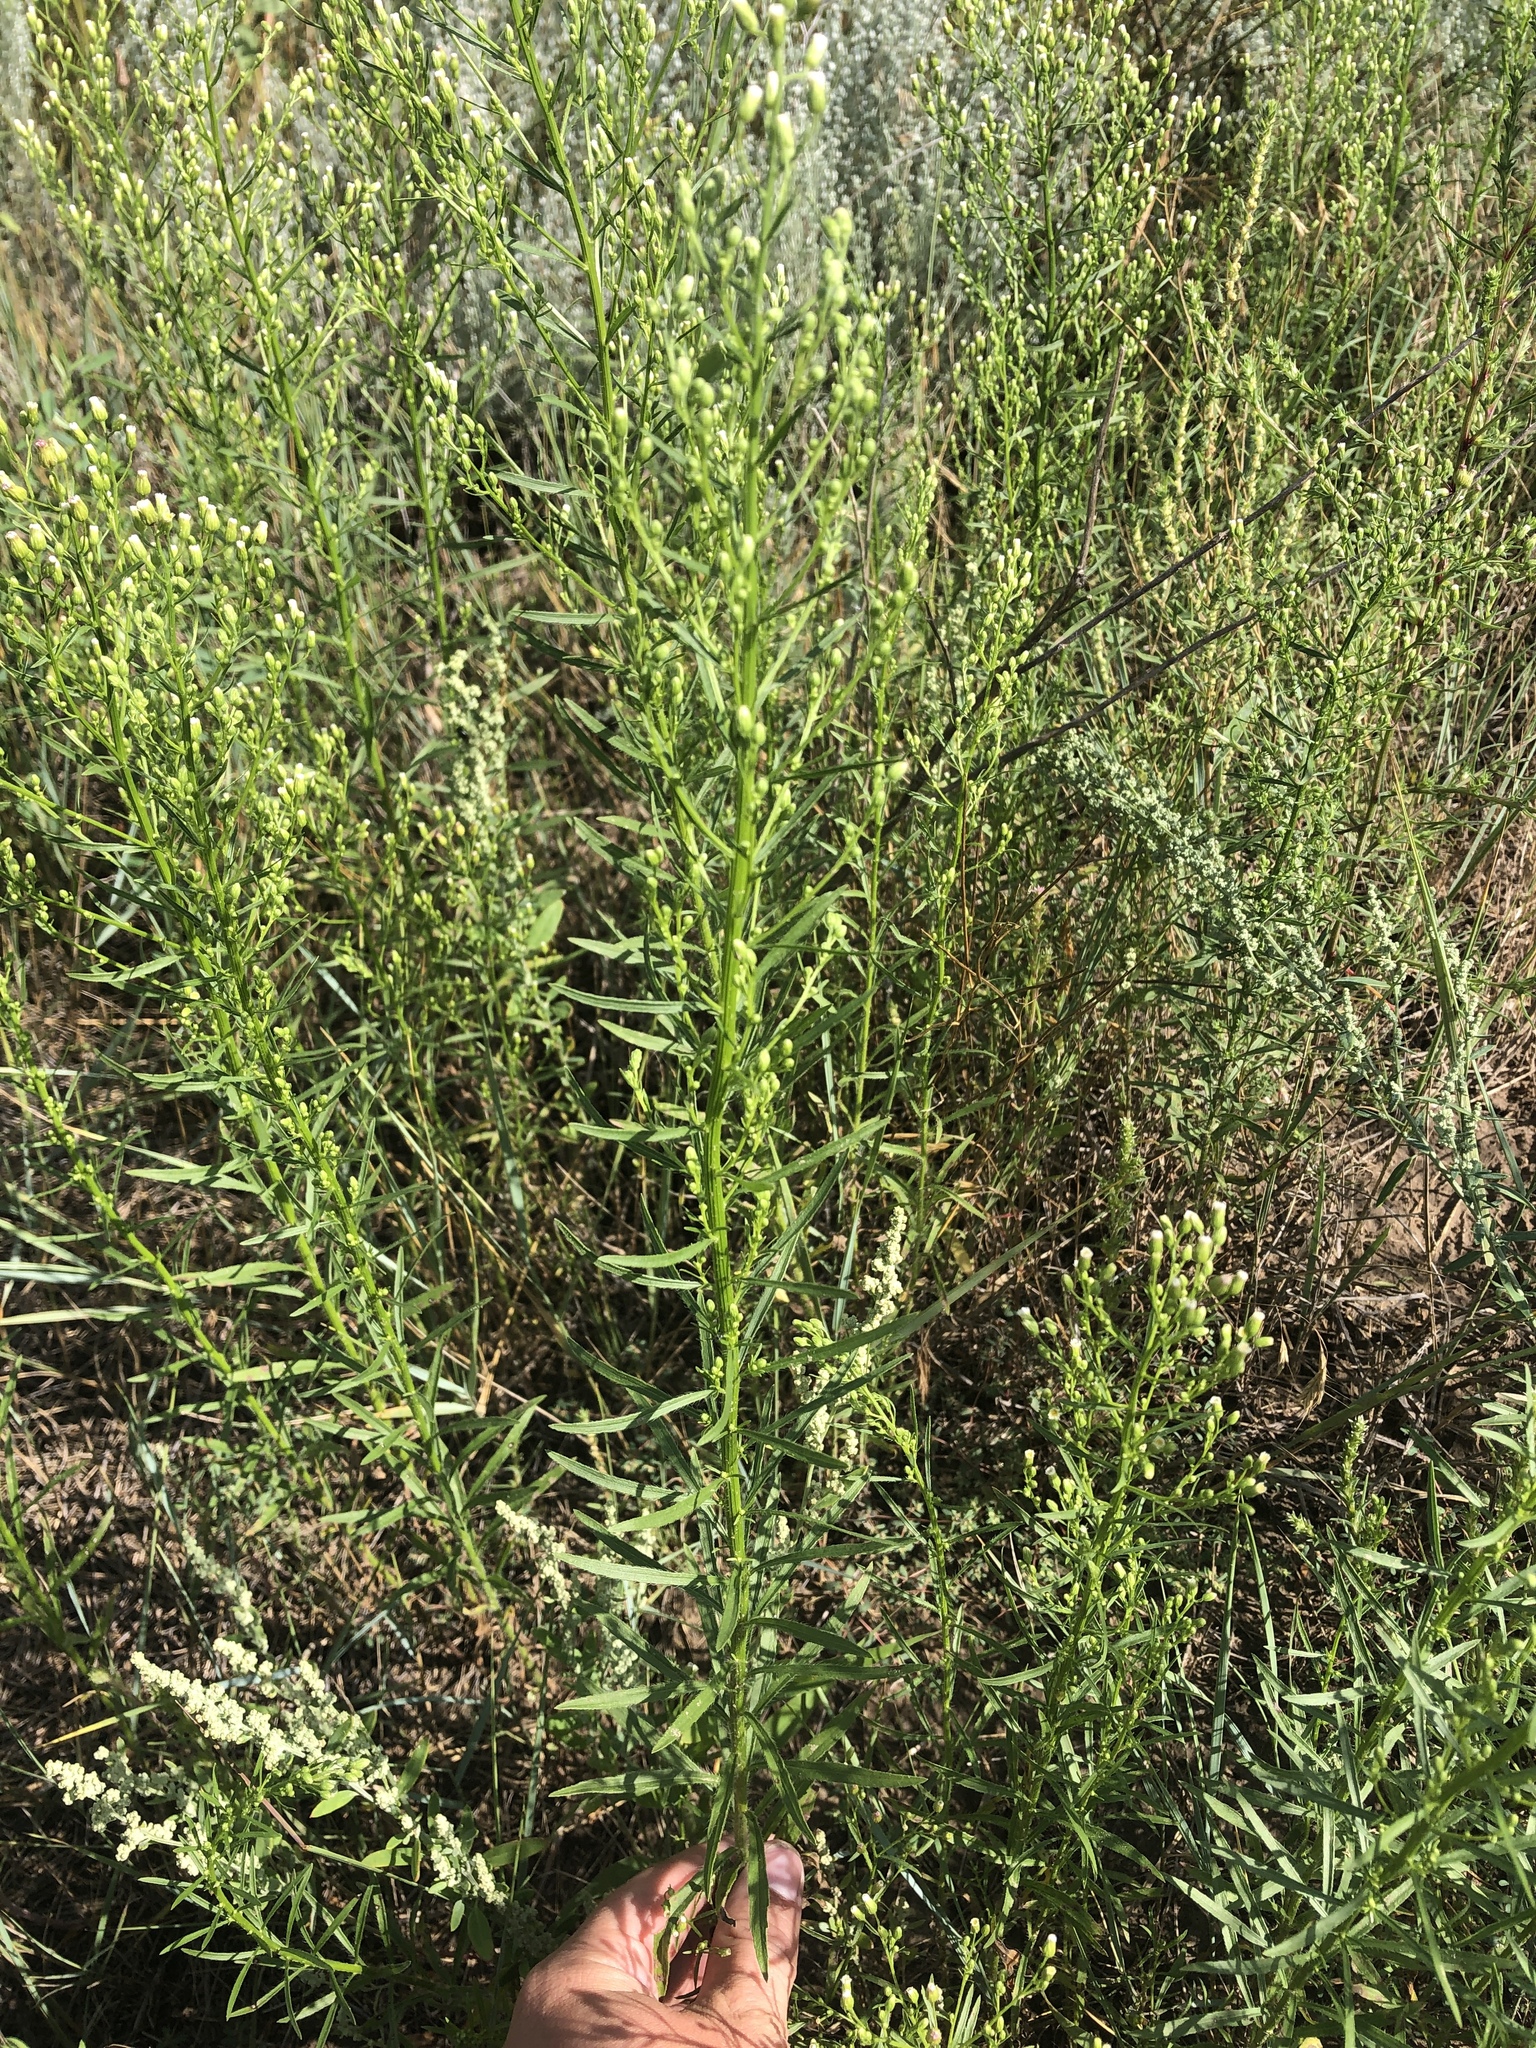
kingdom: Plantae
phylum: Tracheophyta
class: Magnoliopsida
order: Asterales
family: Asteraceae
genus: Erigeron
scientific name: Erigeron canadensis
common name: Canadian fleabane
